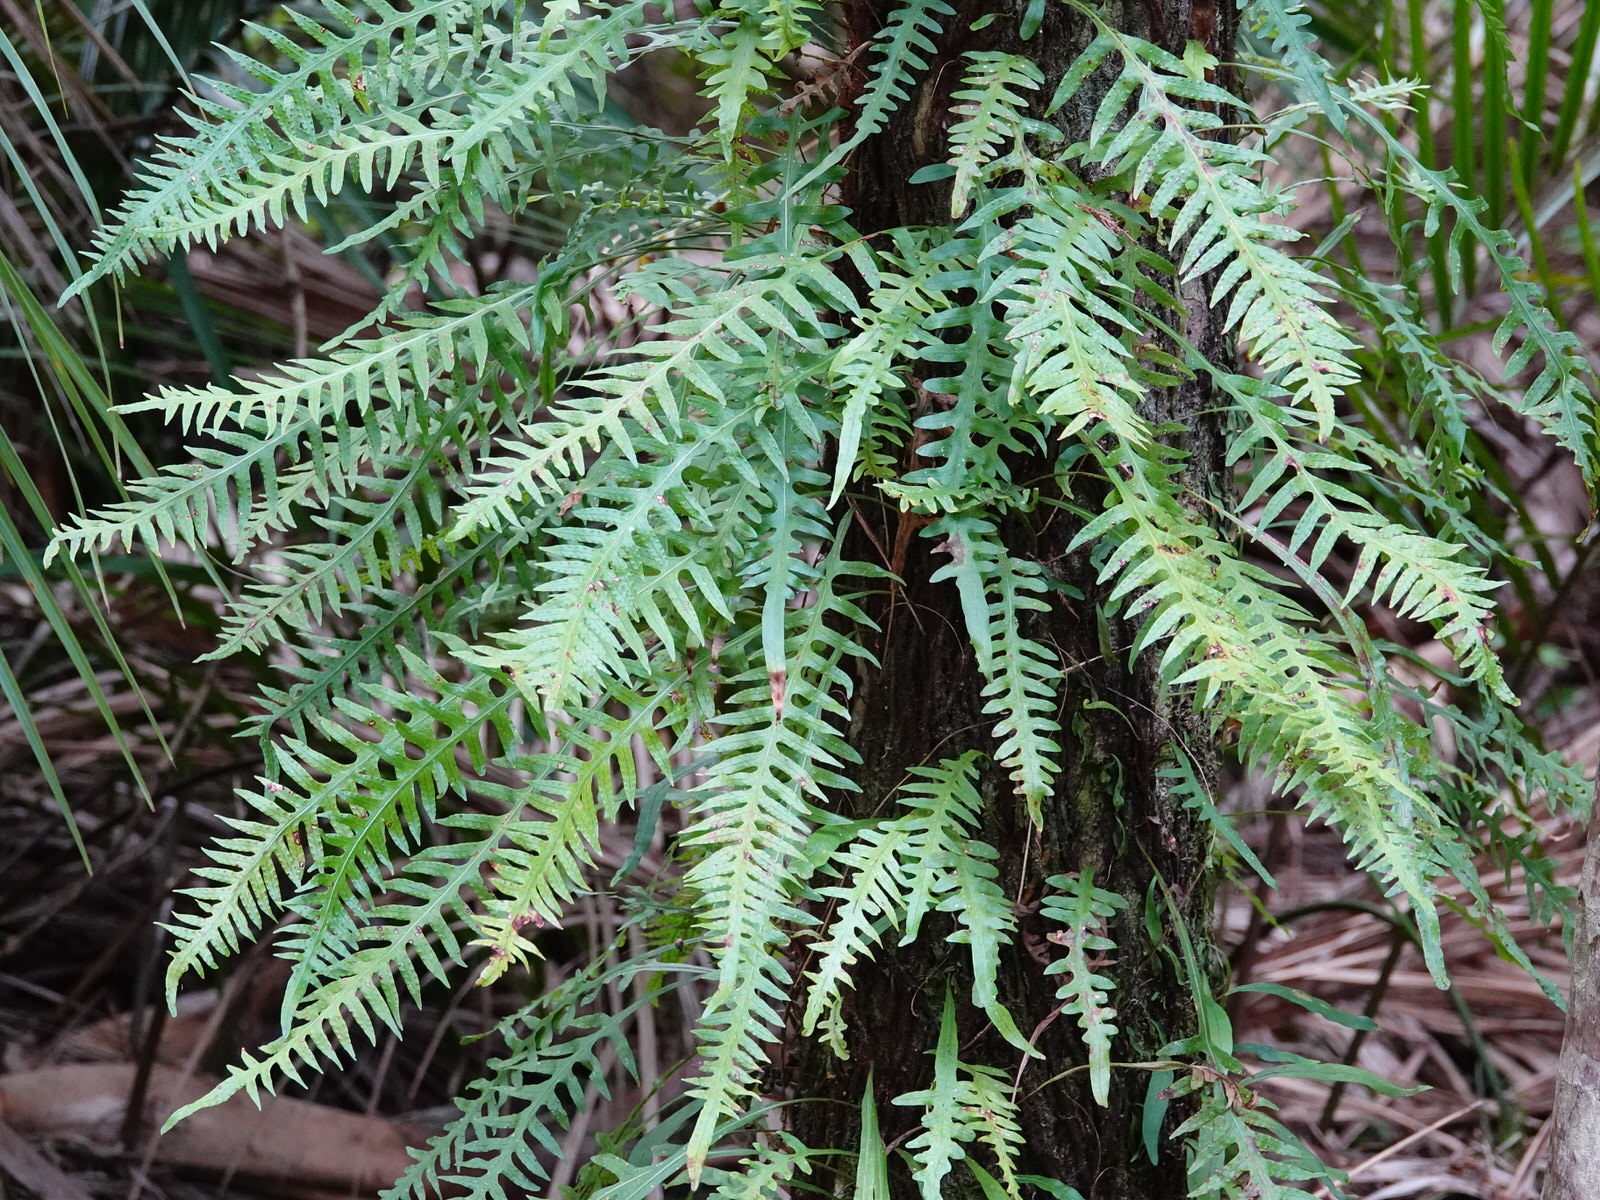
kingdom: Plantae
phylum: Tracheophyta
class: Polypodiopsida
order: Polypodiales
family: Polypodiaceae
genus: Lecanopteris
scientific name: Lecanopteris scandens
